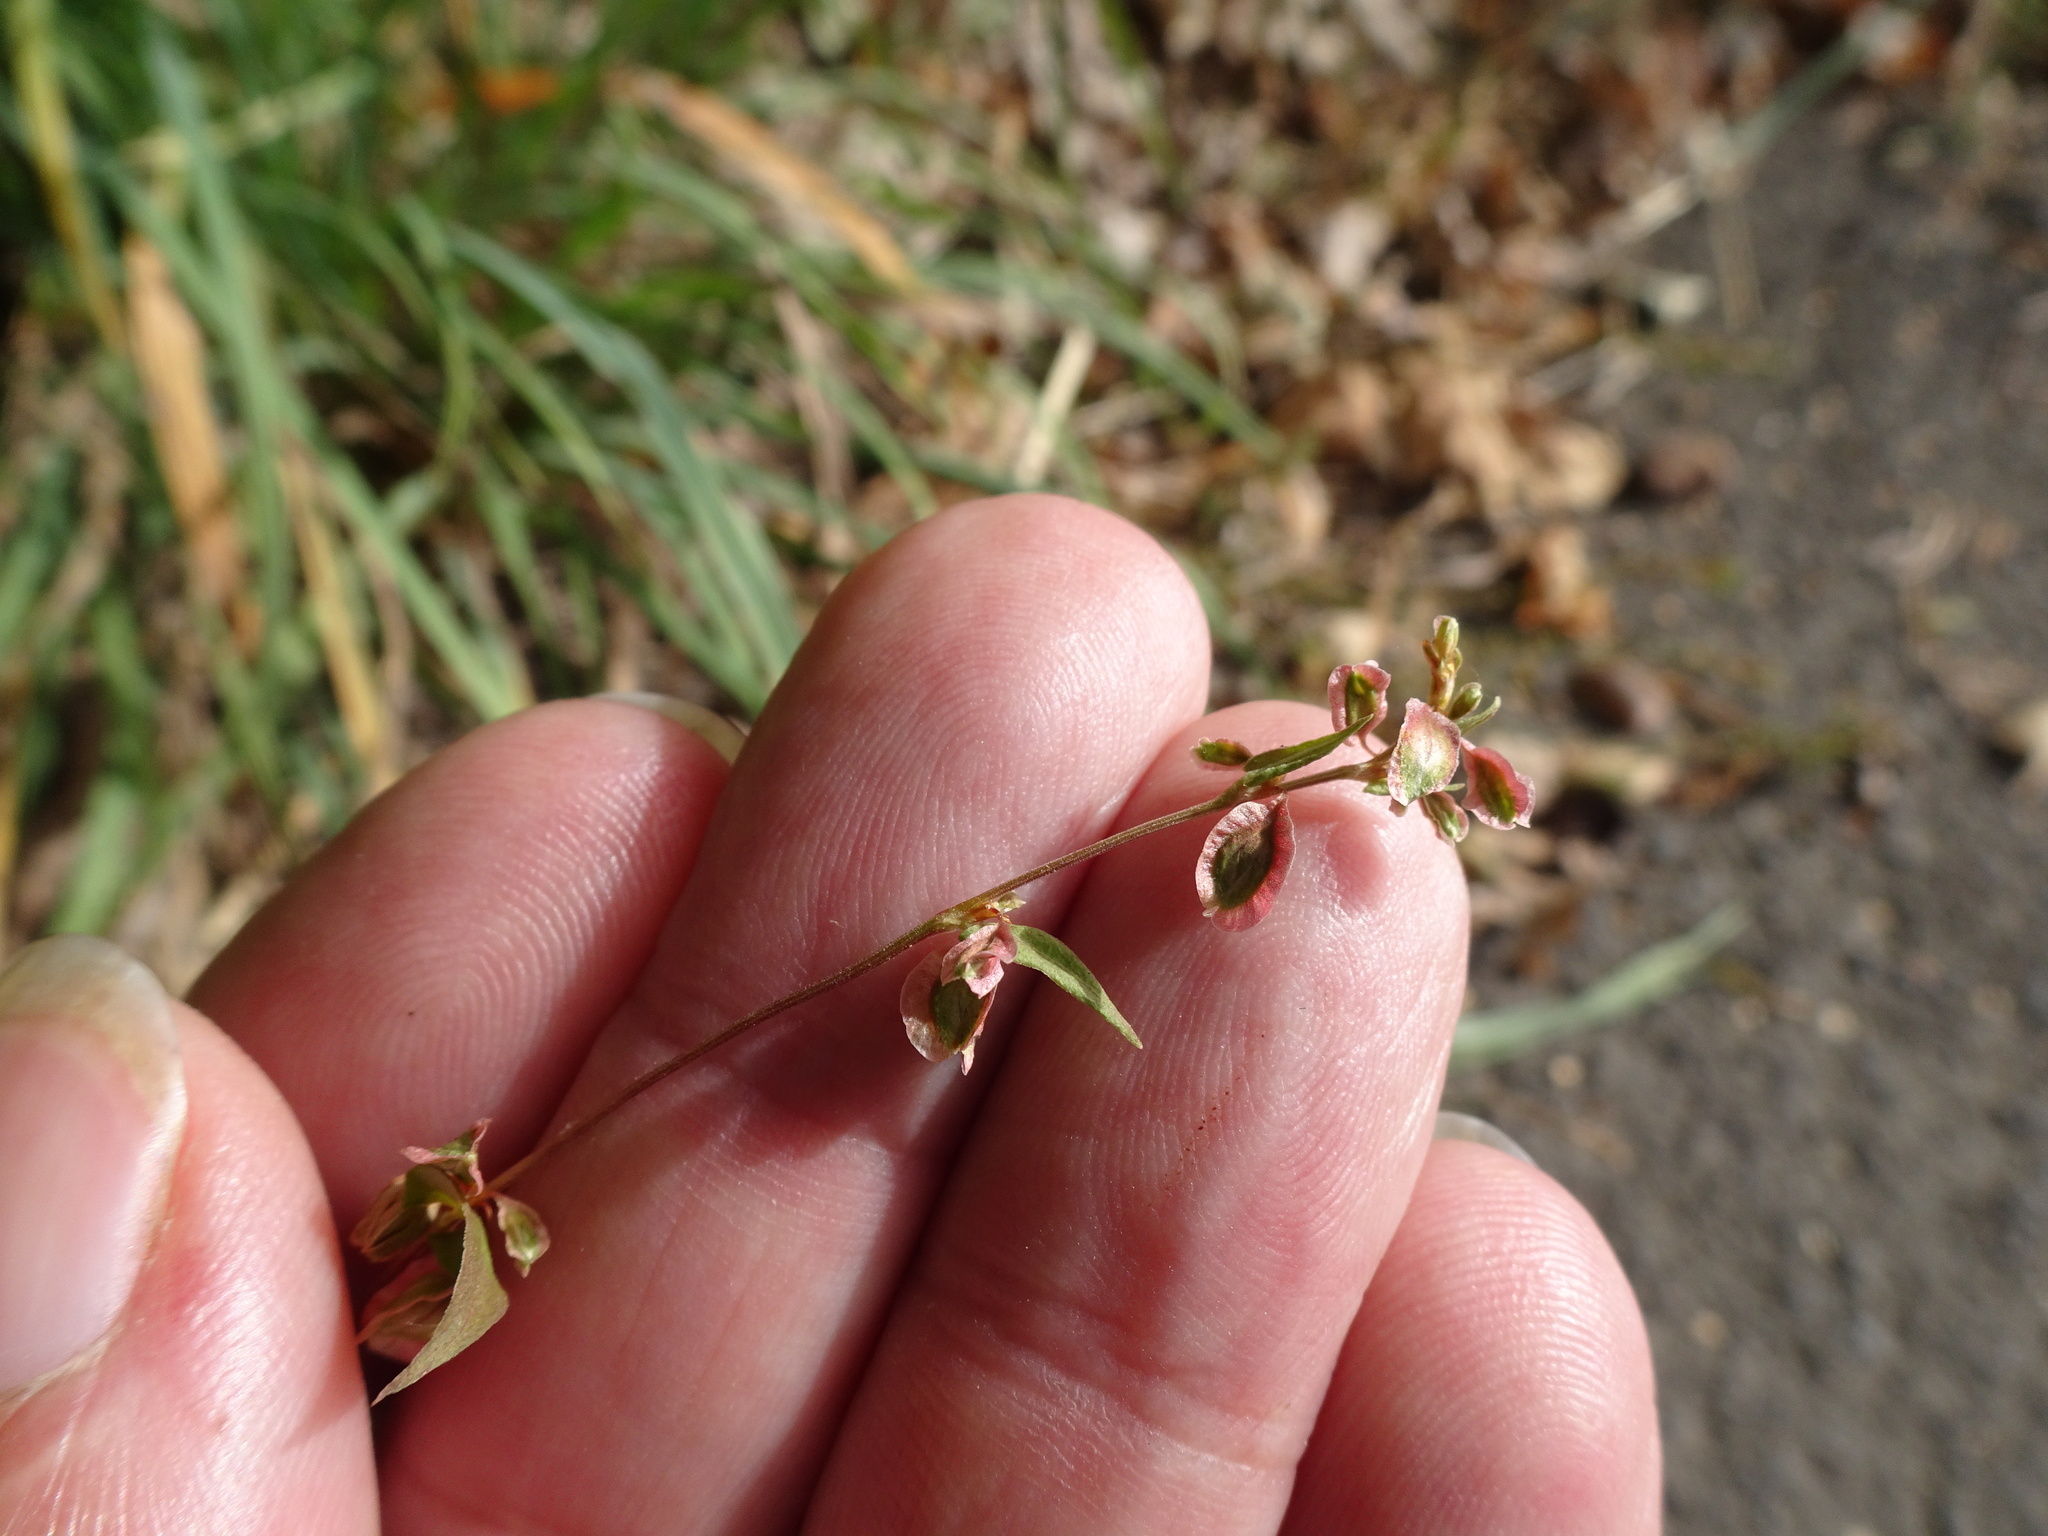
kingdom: Plantae
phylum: Tracheophyta
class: Magnoliopsida
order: Caryophyllales
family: Polygonaceae
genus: Fallopia
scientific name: Fallopia dumetorum
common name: Copse-bindweed
